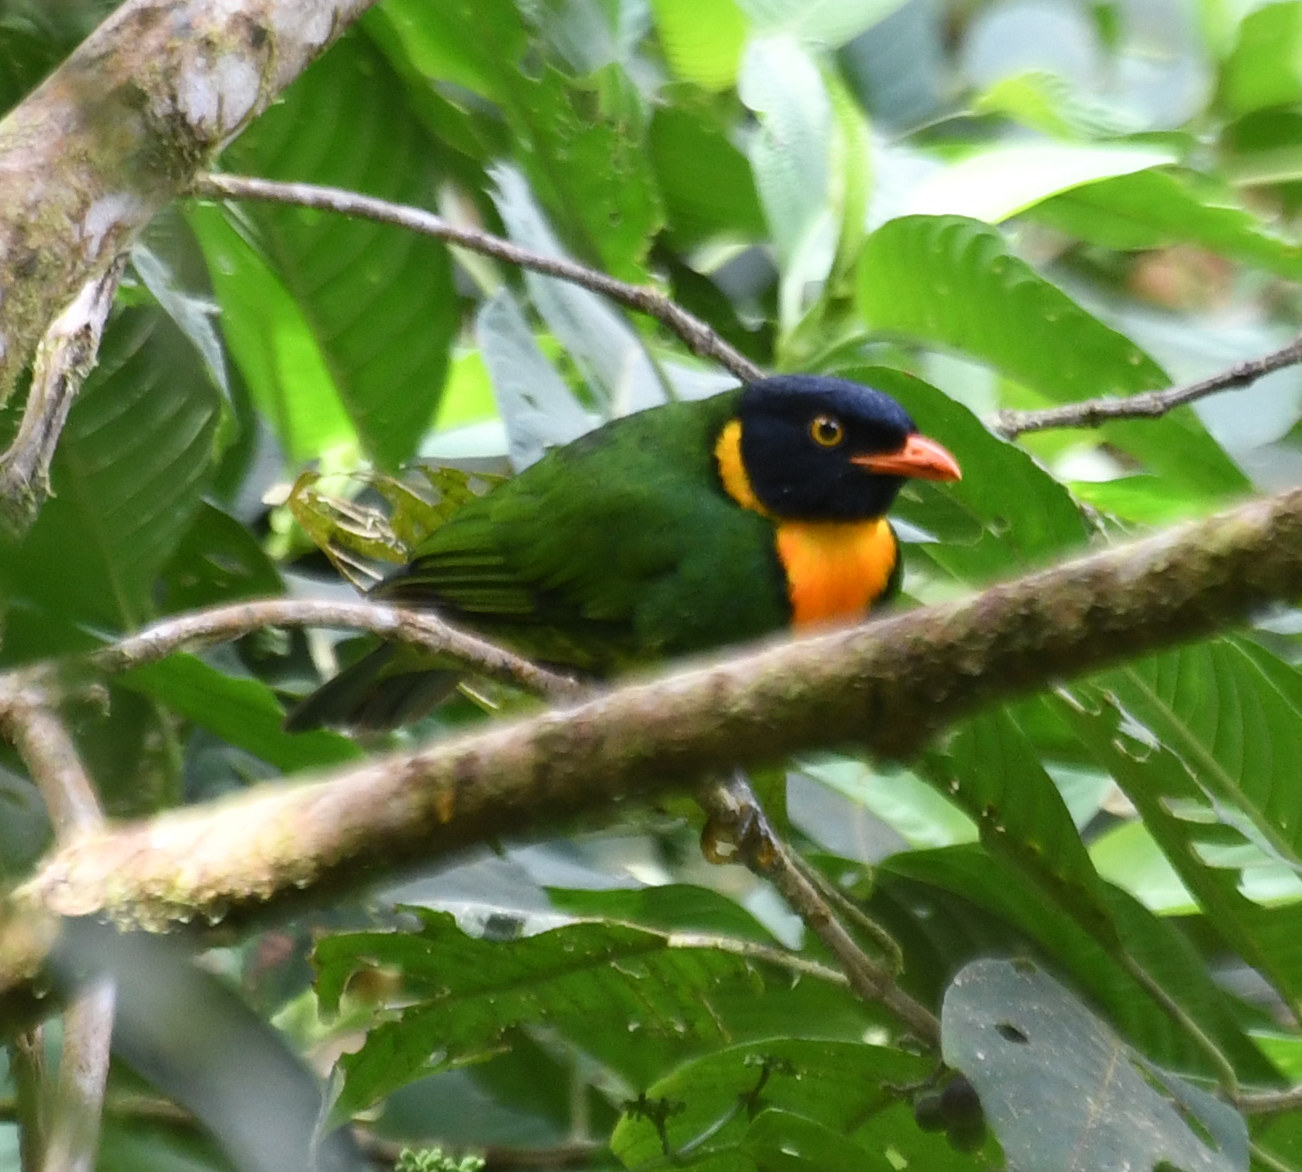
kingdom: Animalia
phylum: Chordata
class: Aves
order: Passeriformes
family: Cotingidae
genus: Pipreola
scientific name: Pipreola jucunda
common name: Orange-breasted fruiteater
